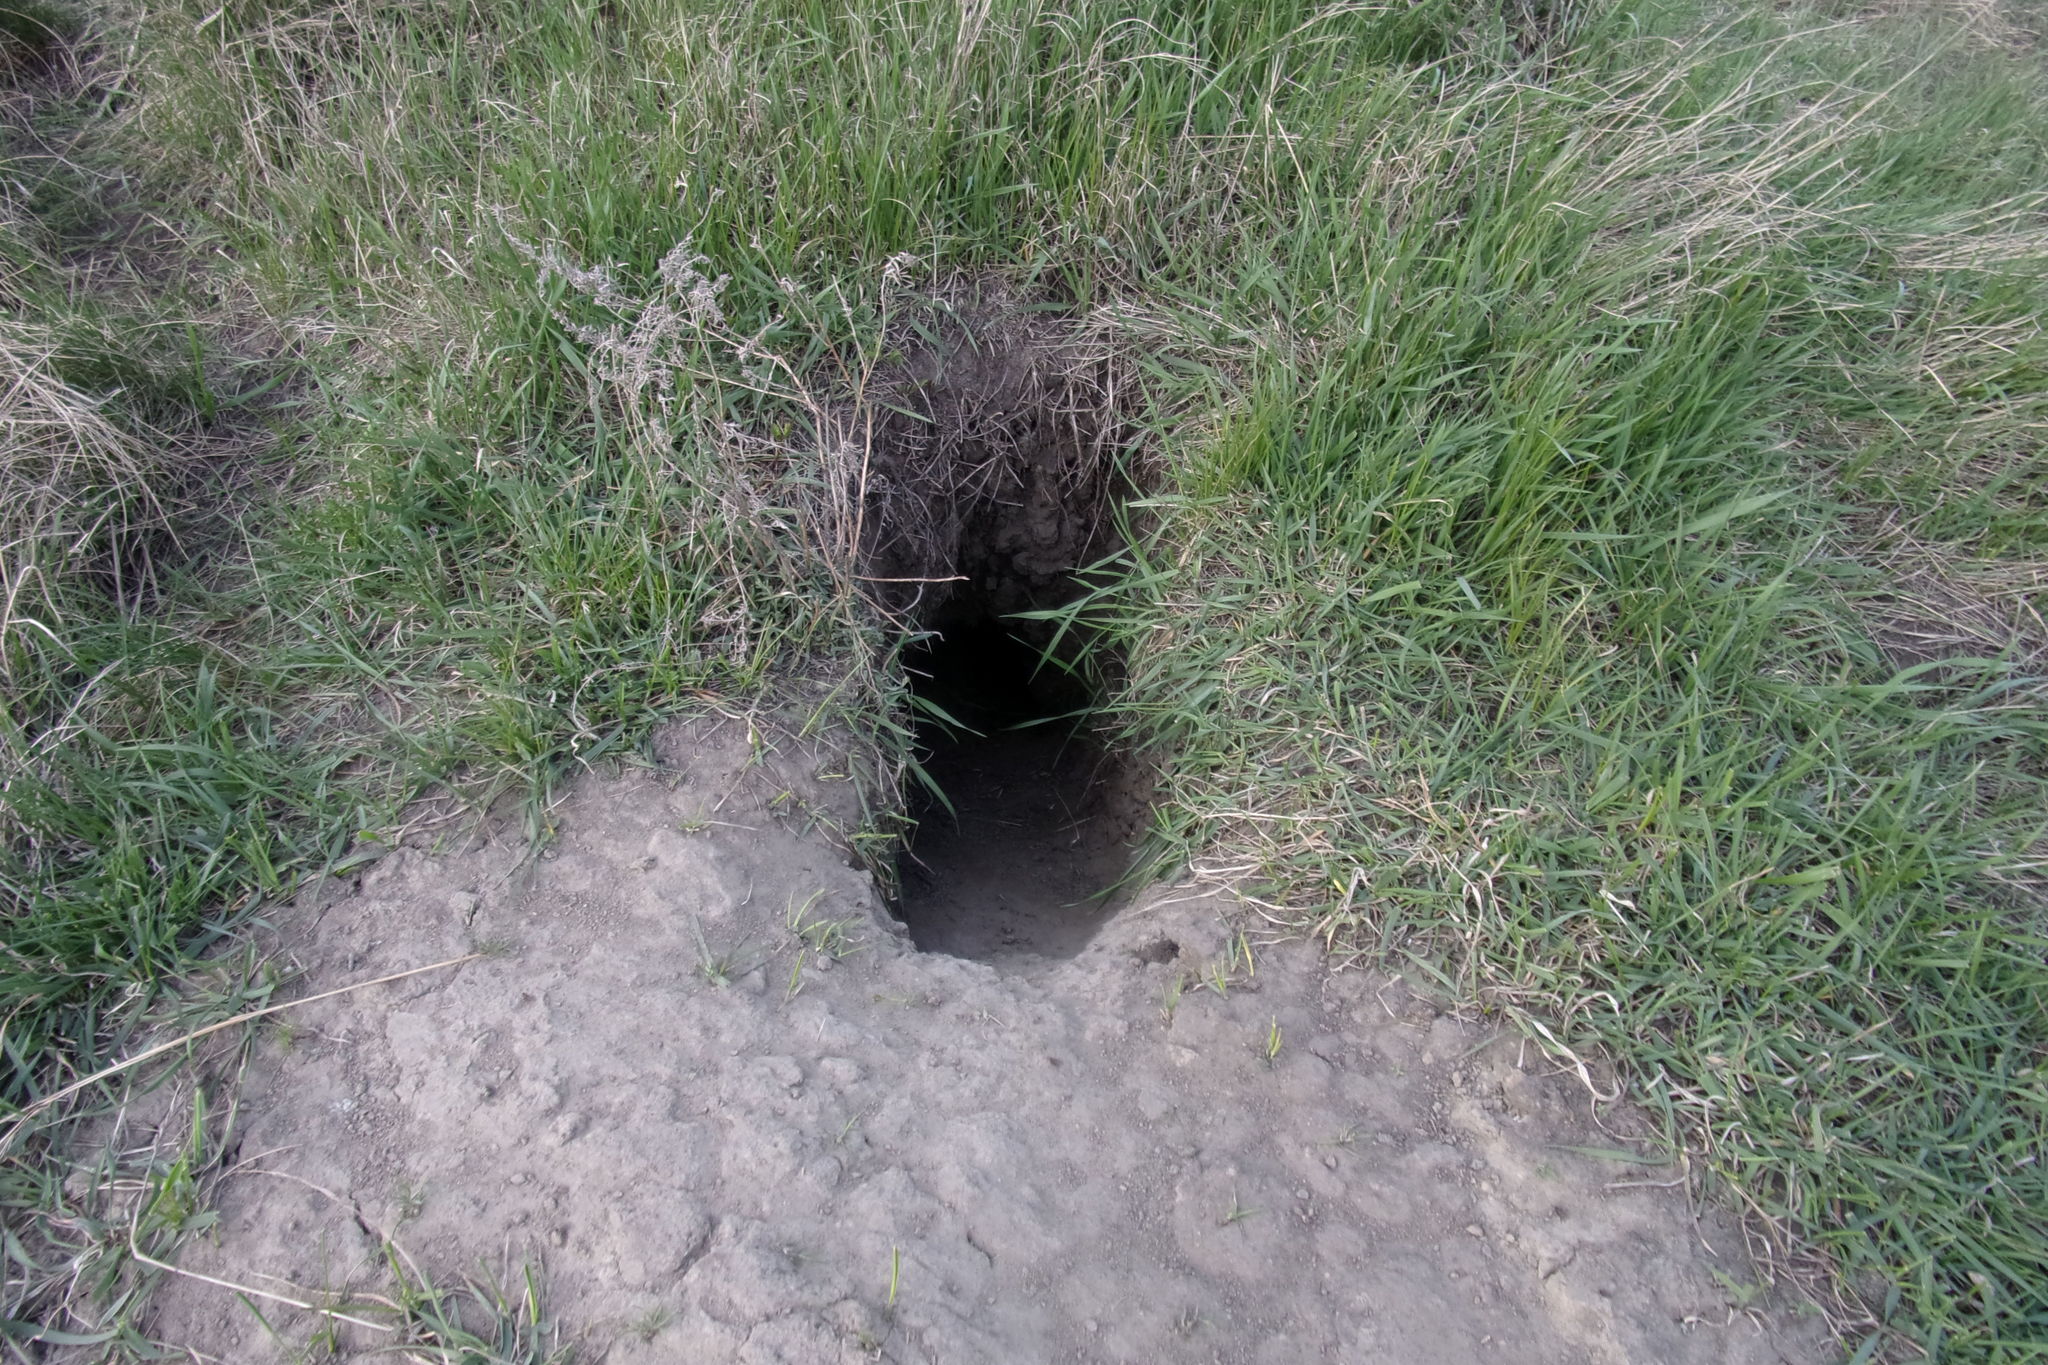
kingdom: Animalia
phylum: Chordata
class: Mammalia
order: Rodentia
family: Sciuridae
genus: Marmota
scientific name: Marmota kastschenkoi
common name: Forest steppe marmot
